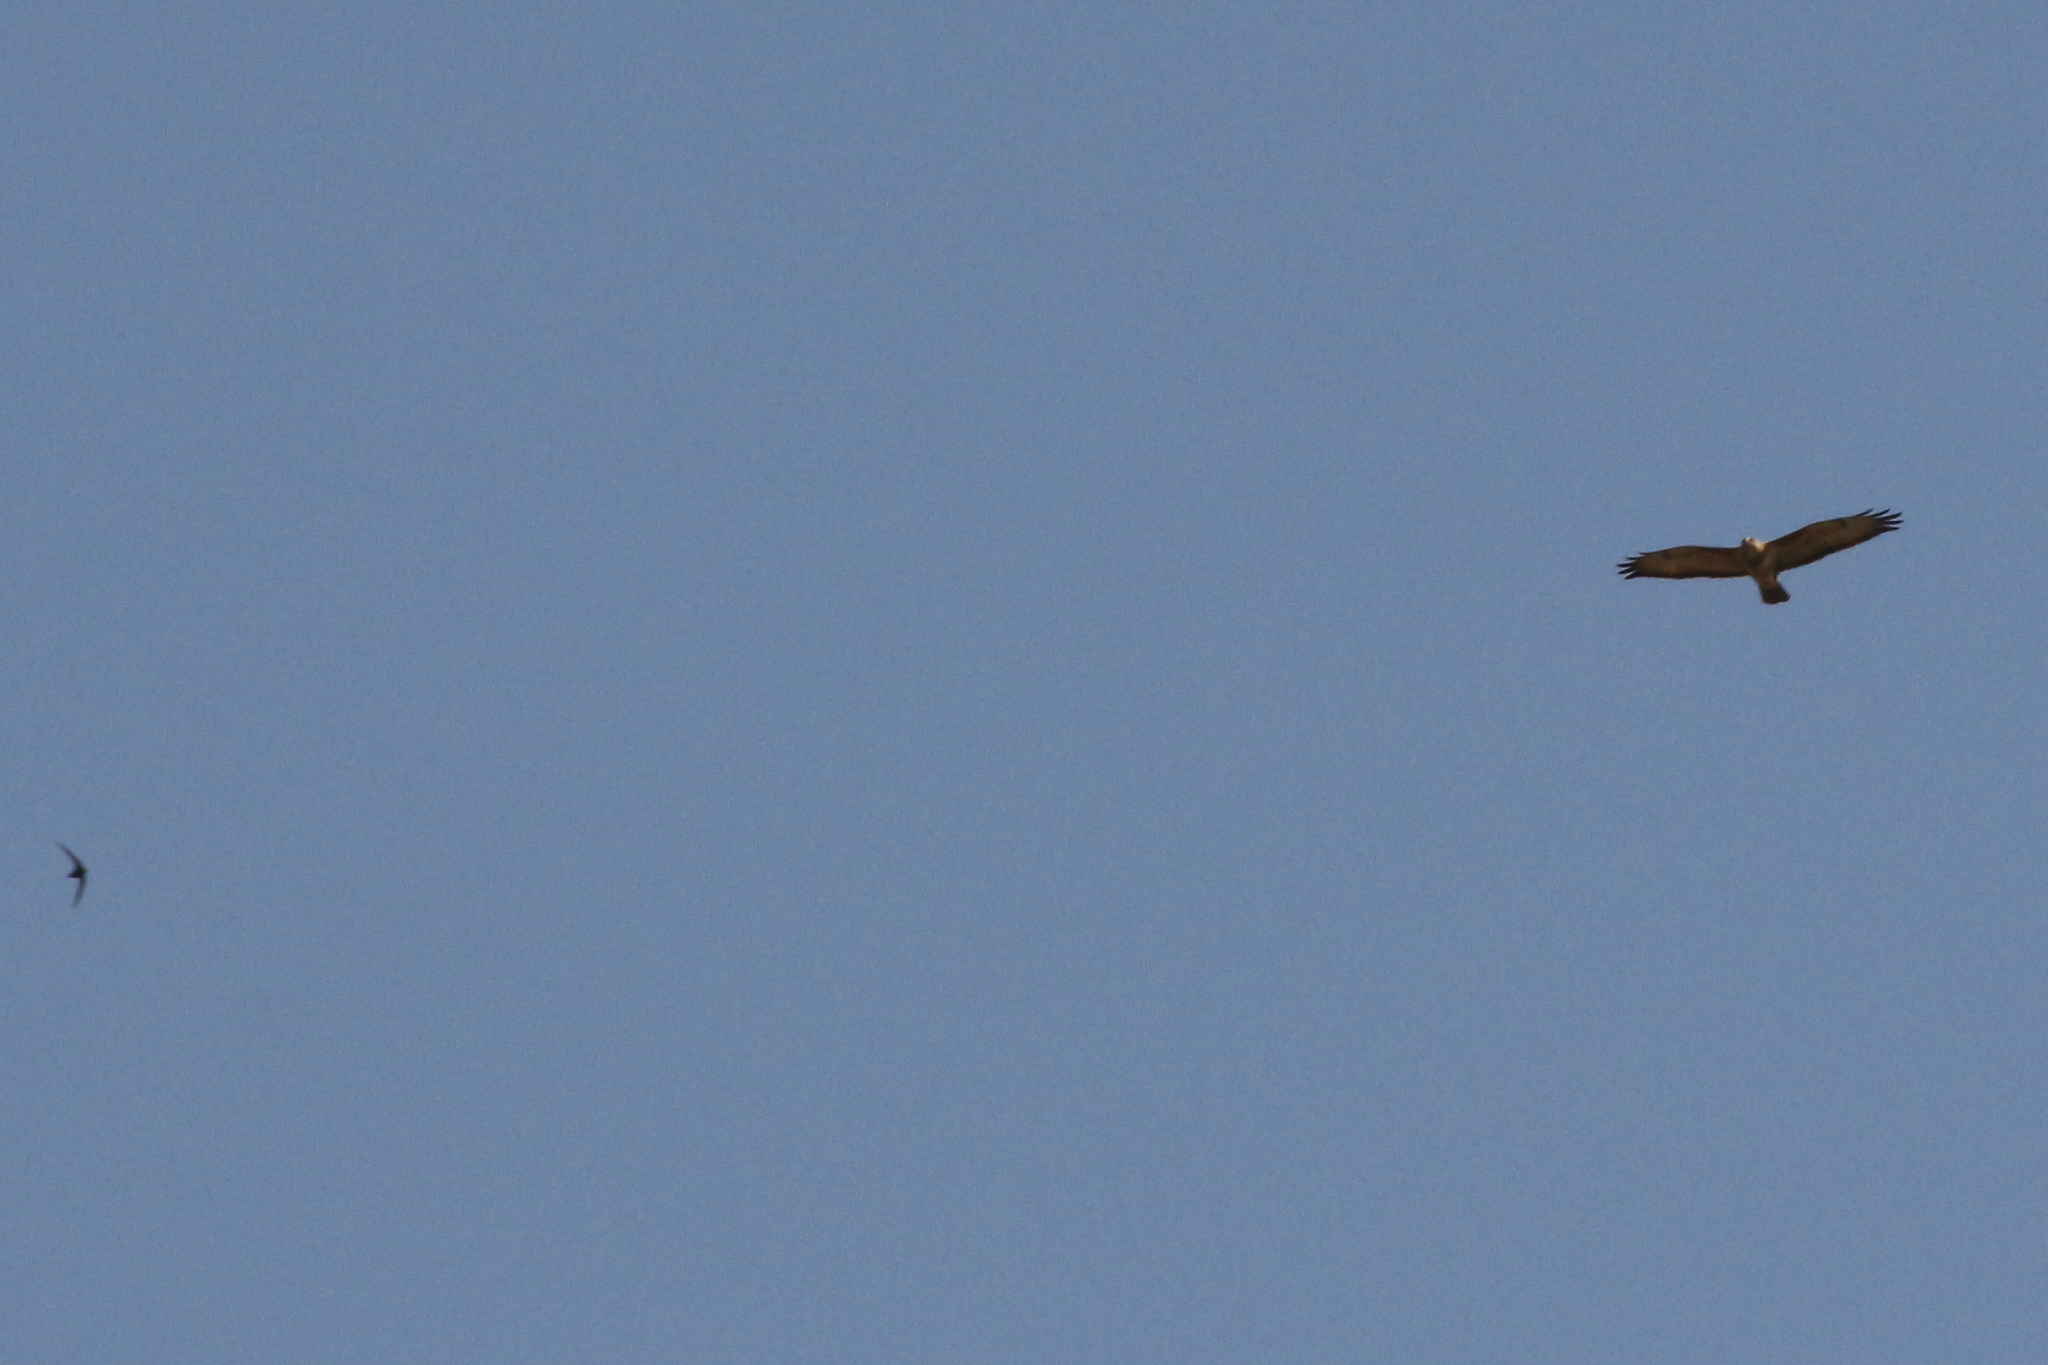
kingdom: Animalia
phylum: Chordata
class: Aves
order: Accipitriformes
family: Accipitridae
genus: Buteo
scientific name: Buteo buteo
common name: Common buzzard
